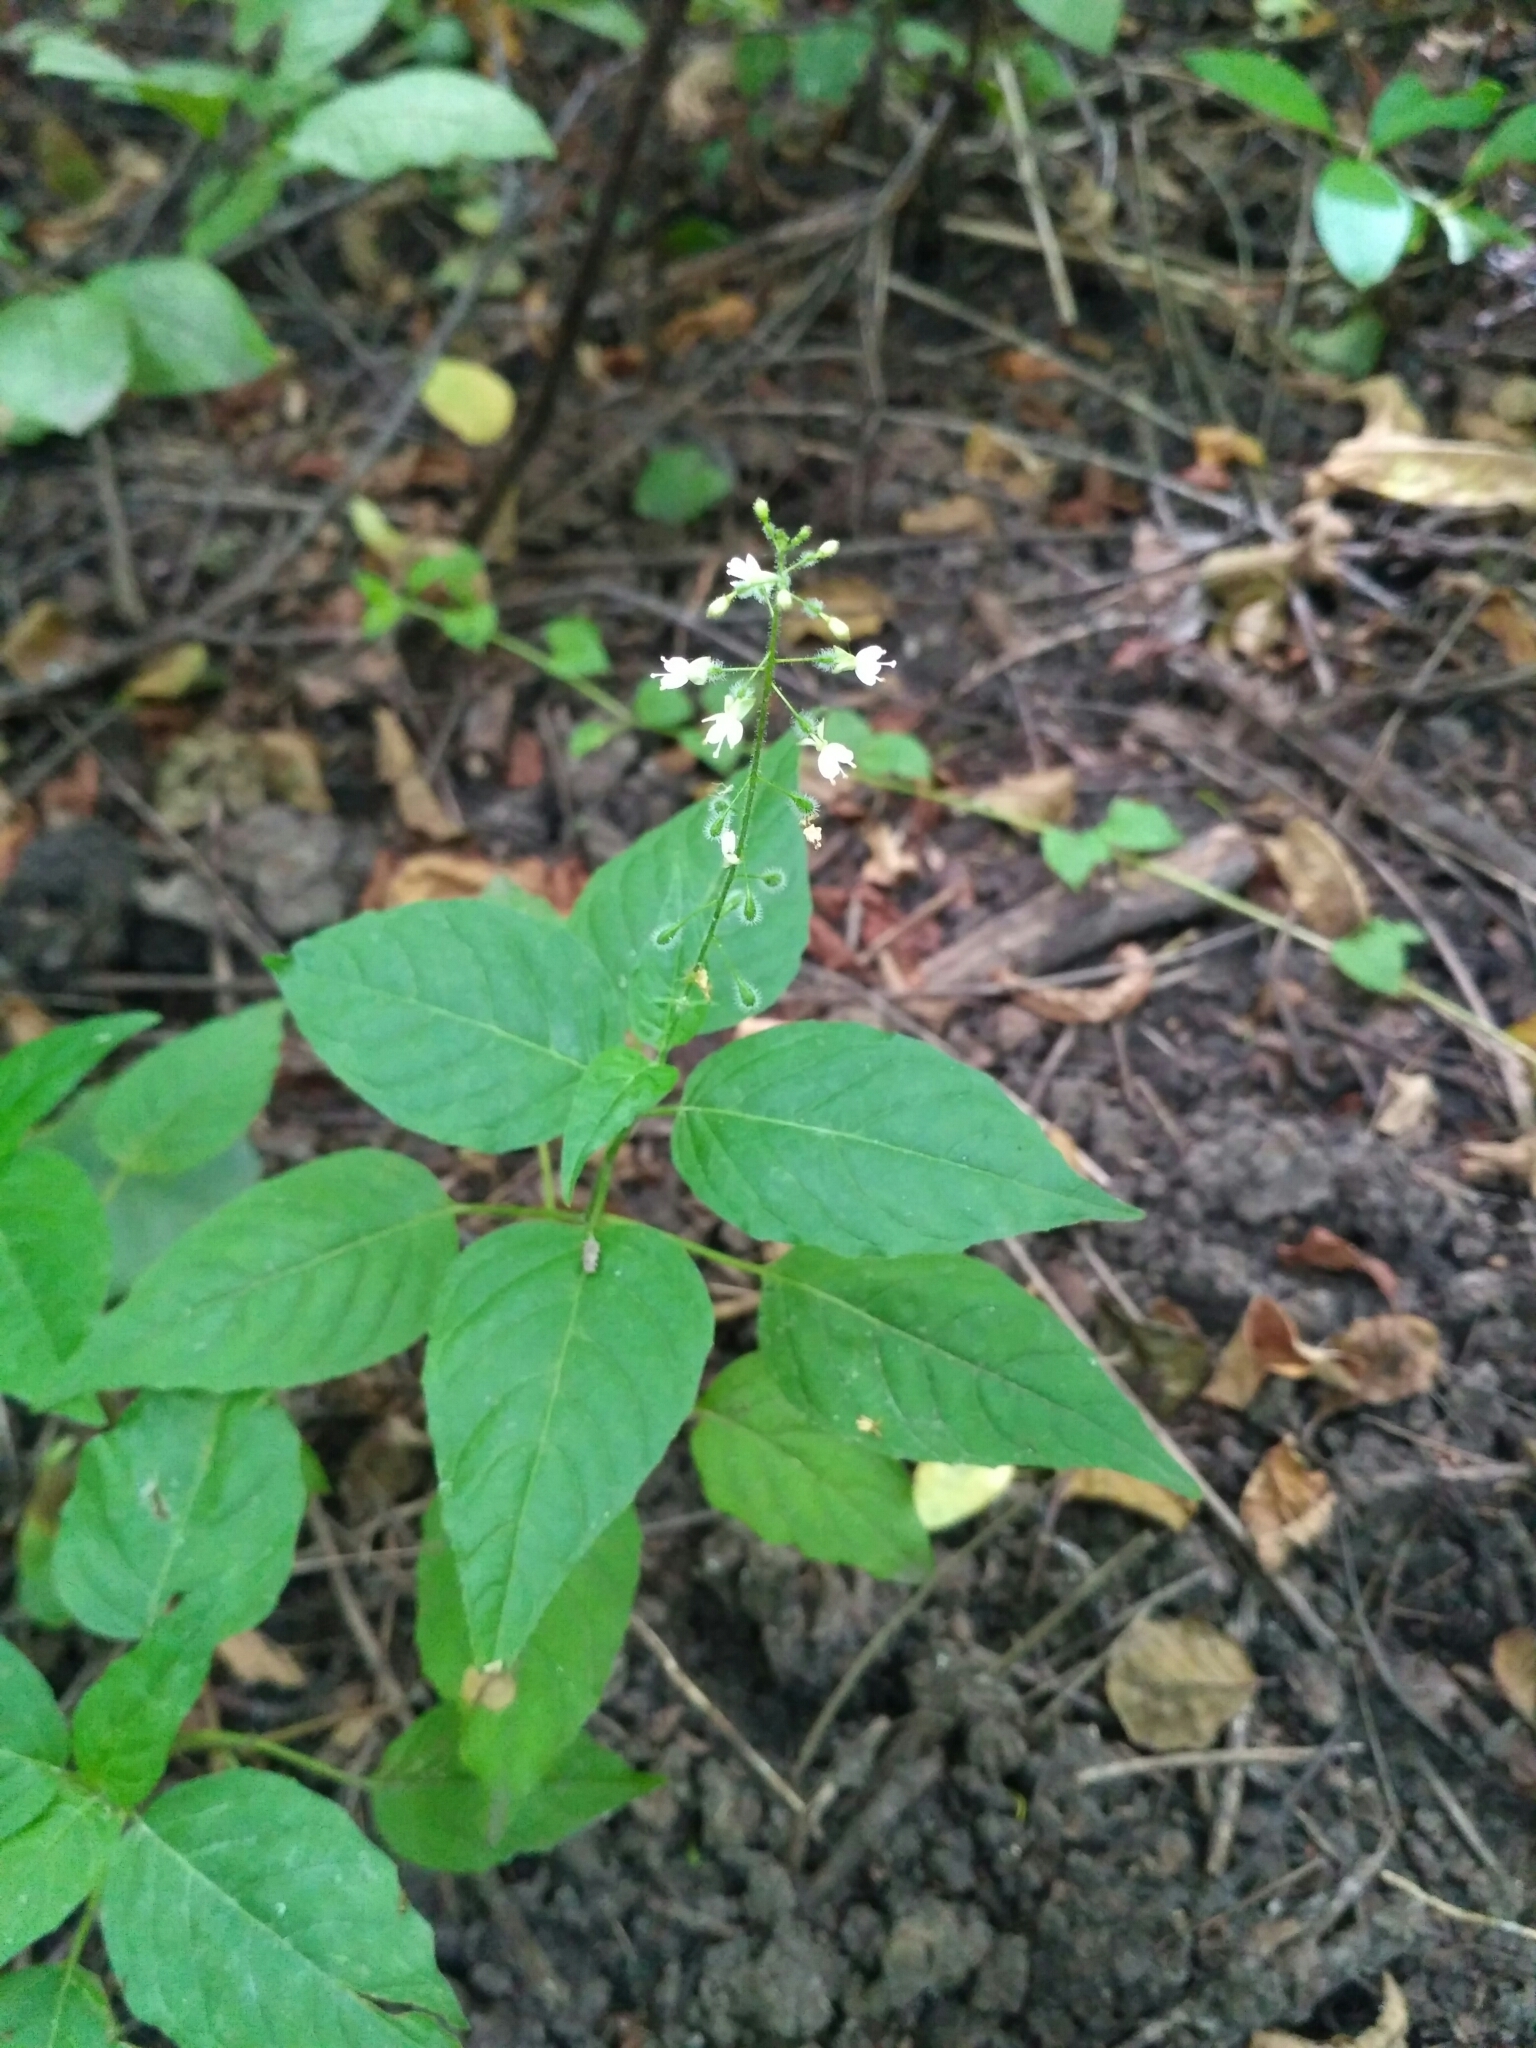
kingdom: Plantae
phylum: Tracheophyta
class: Magnoliopsida
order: Myrtales
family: Onagraceae
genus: Circaea
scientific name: Circaea lutetiana
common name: Enchanter's-nightshade
